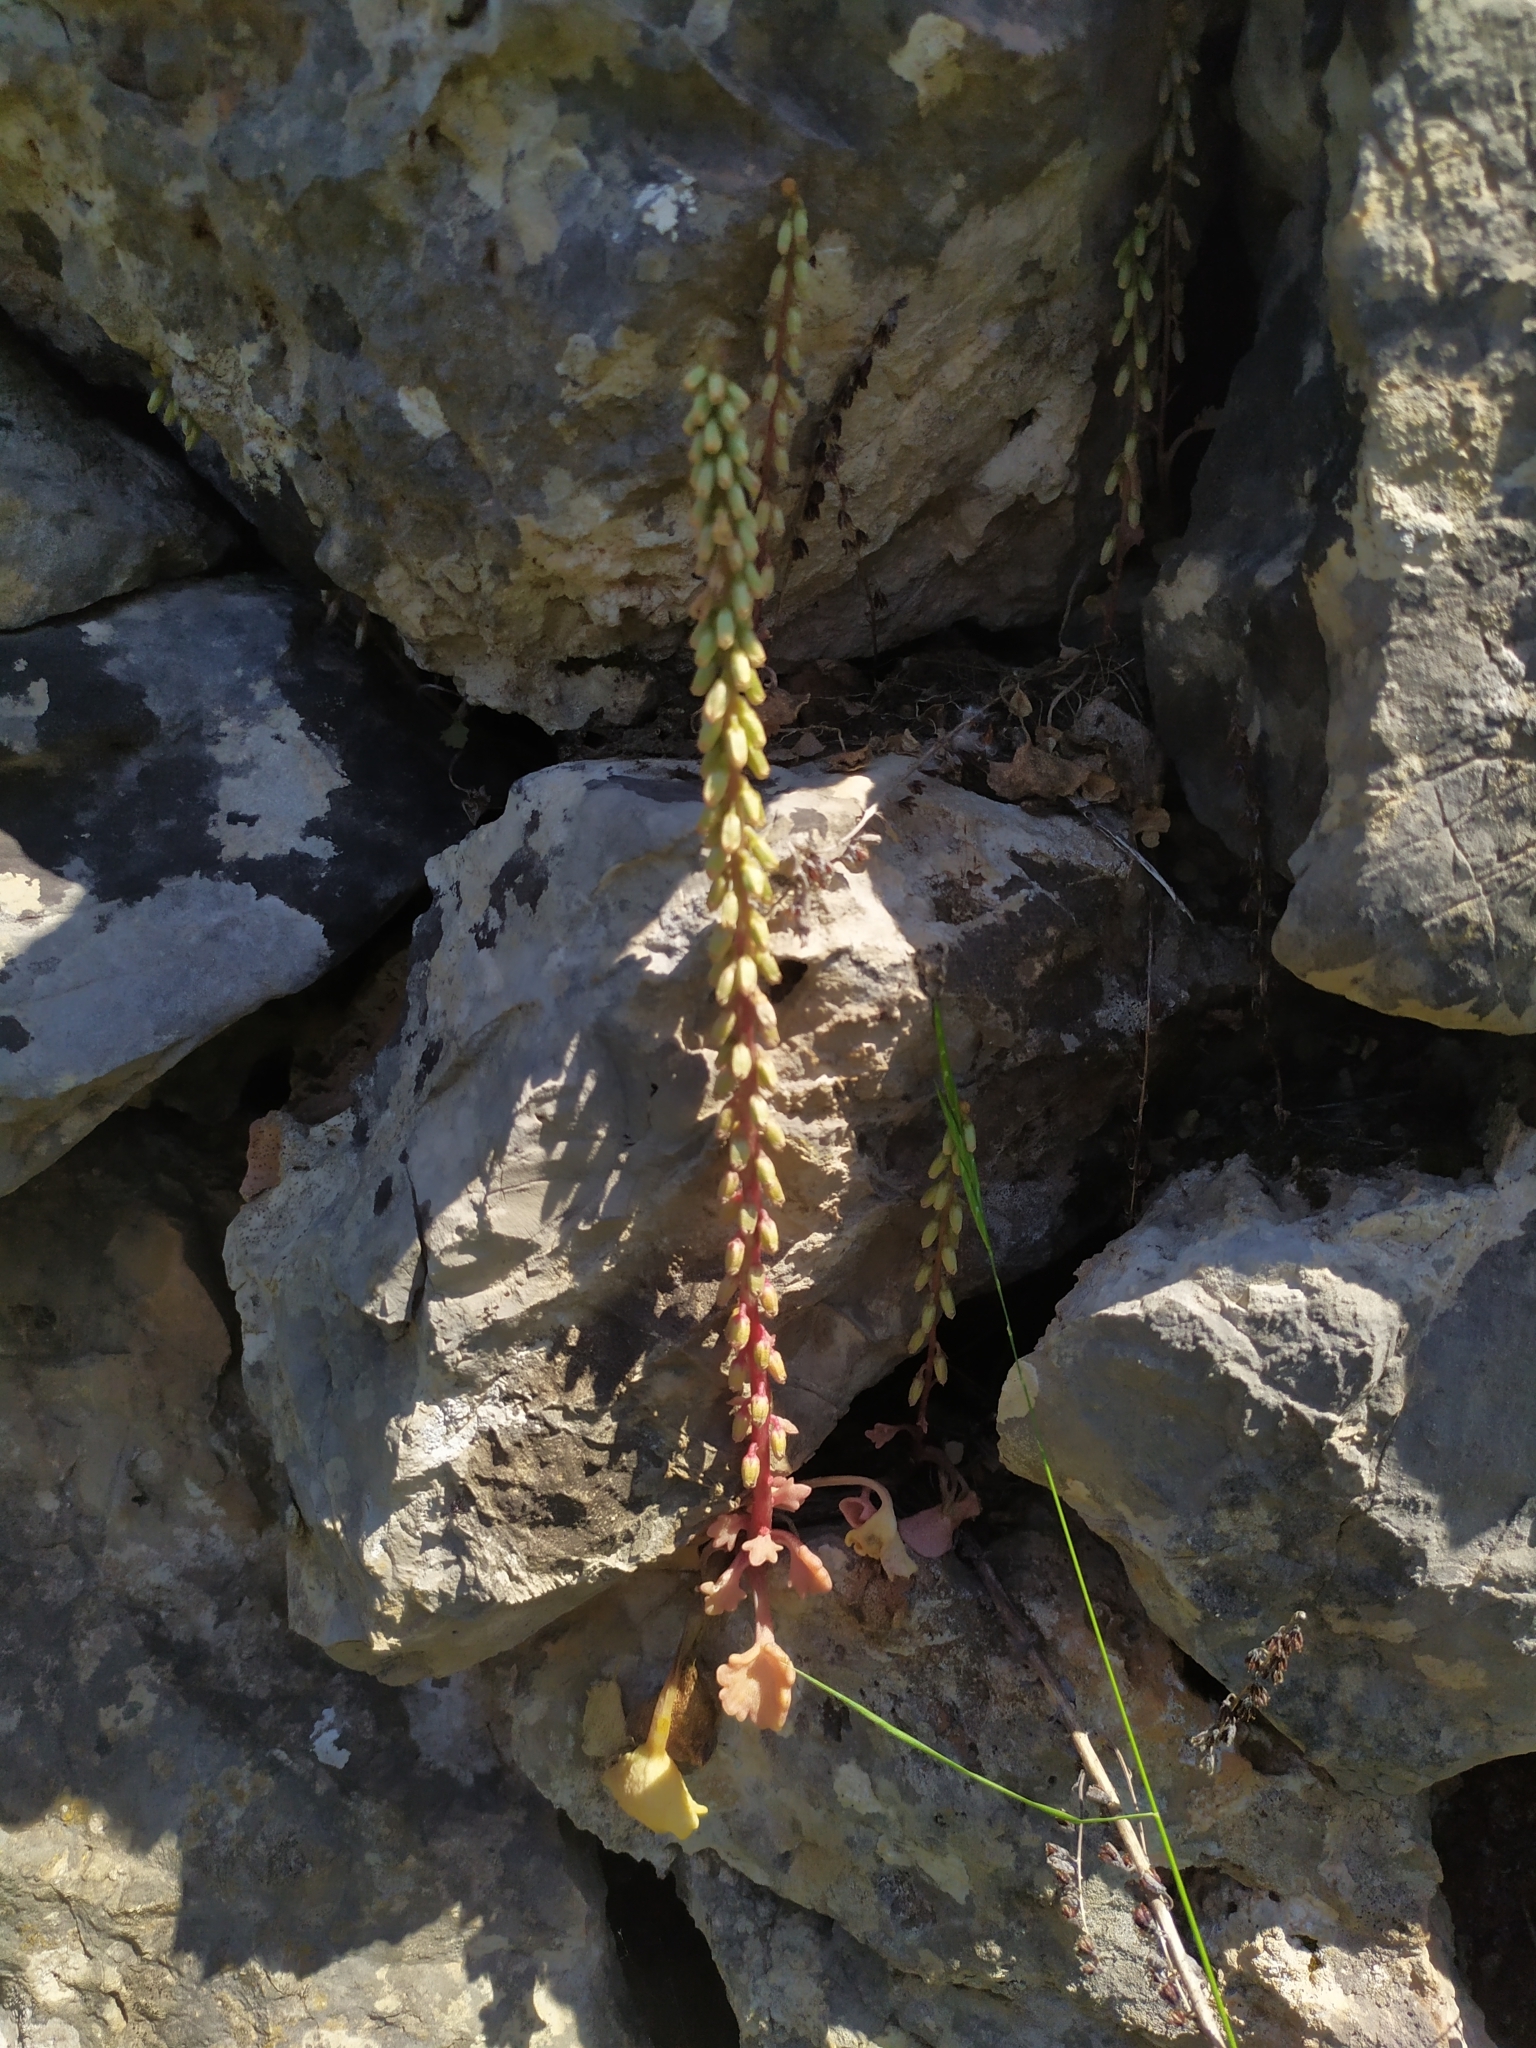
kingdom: Plantae
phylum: Tracheophyta
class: Magnoliopsida
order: Saxifragales
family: Crassulaceae
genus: Umbilicus
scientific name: Umbilicus rupestris
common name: Navelwort
